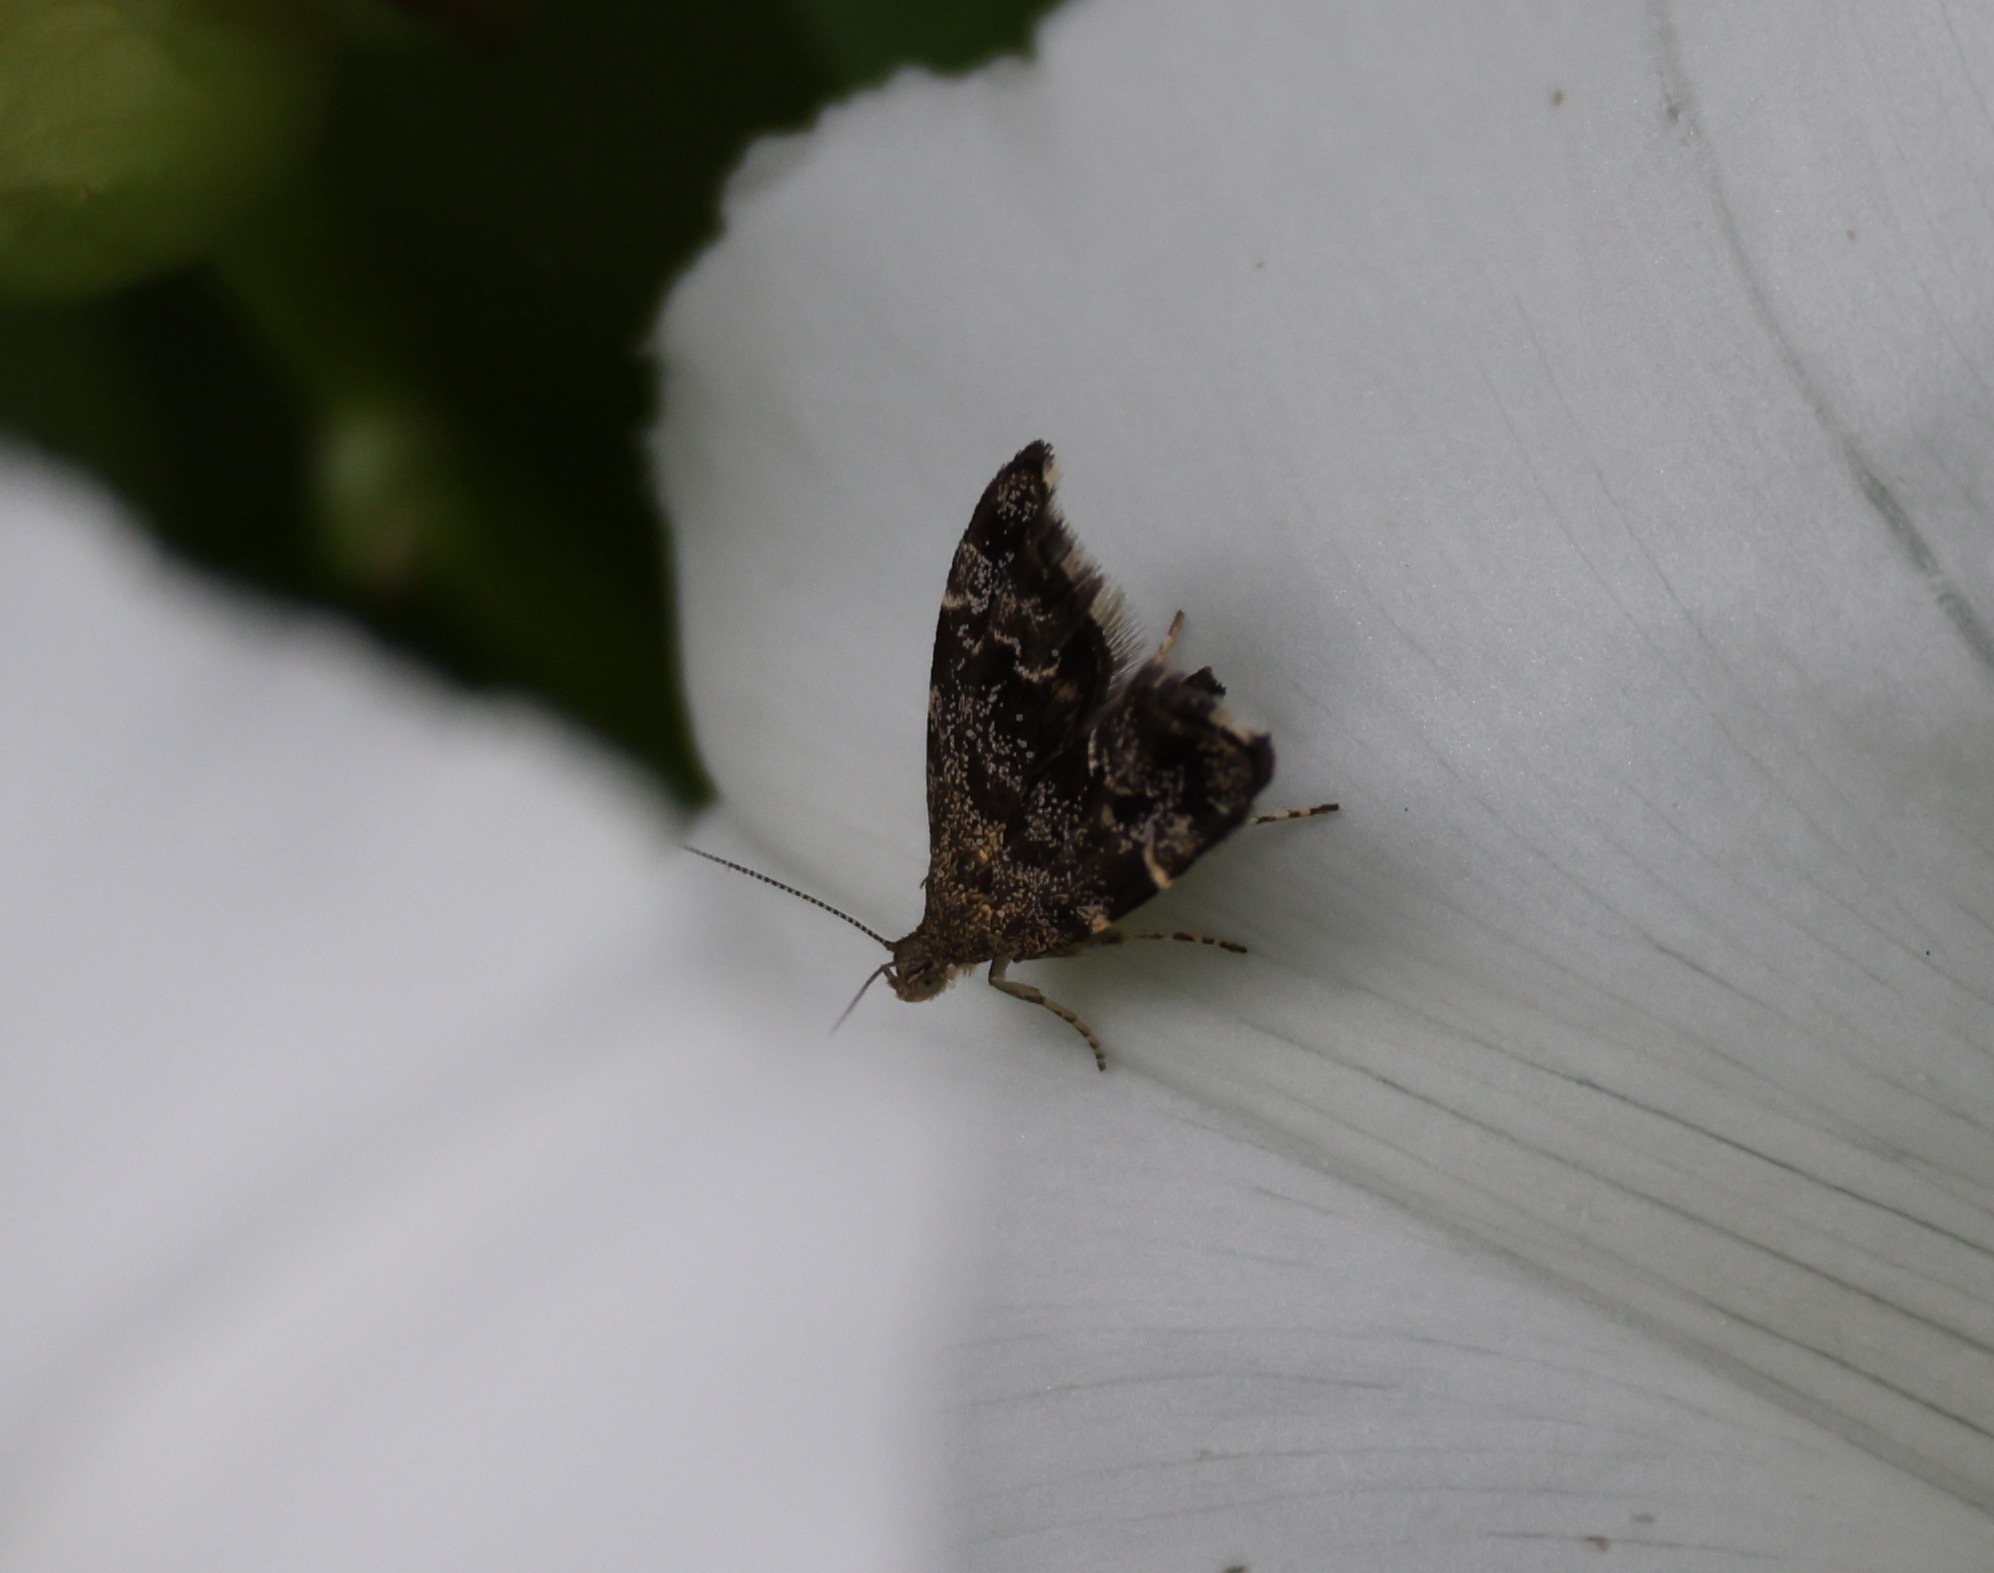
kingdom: Animalia
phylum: Arthropoda
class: Insecta
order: Lepidoptera
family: Choreutidae
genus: Anthophila
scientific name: Anthophila fabriciana
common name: Nettle-tap
